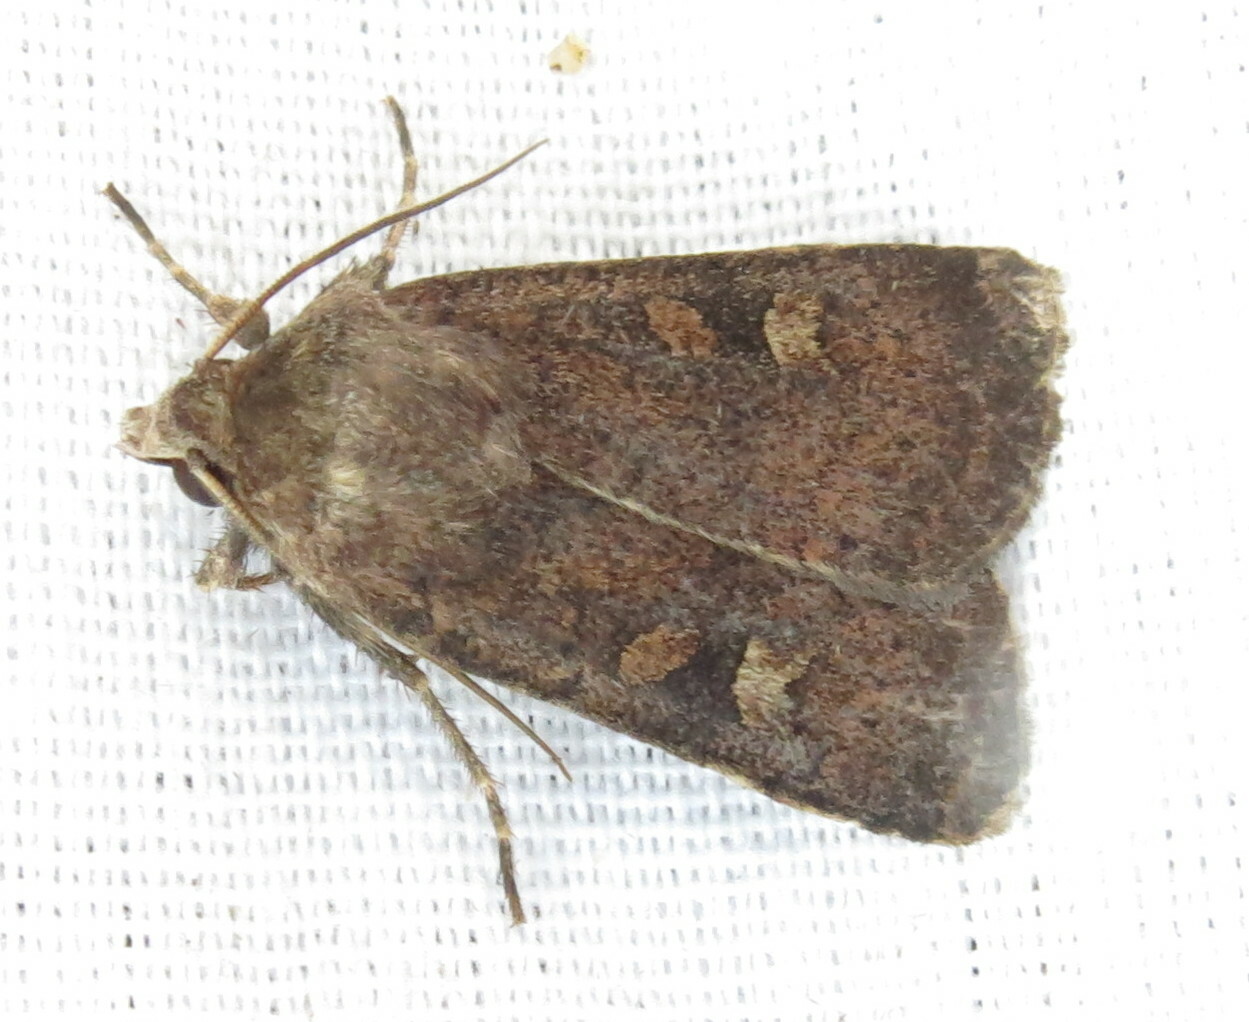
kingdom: Animalia
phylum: Arthropoda
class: Insecta
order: Lepidoptera
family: Noctuidae
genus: Xestia
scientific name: Xestia xanthographa
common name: Square-spot rustic
